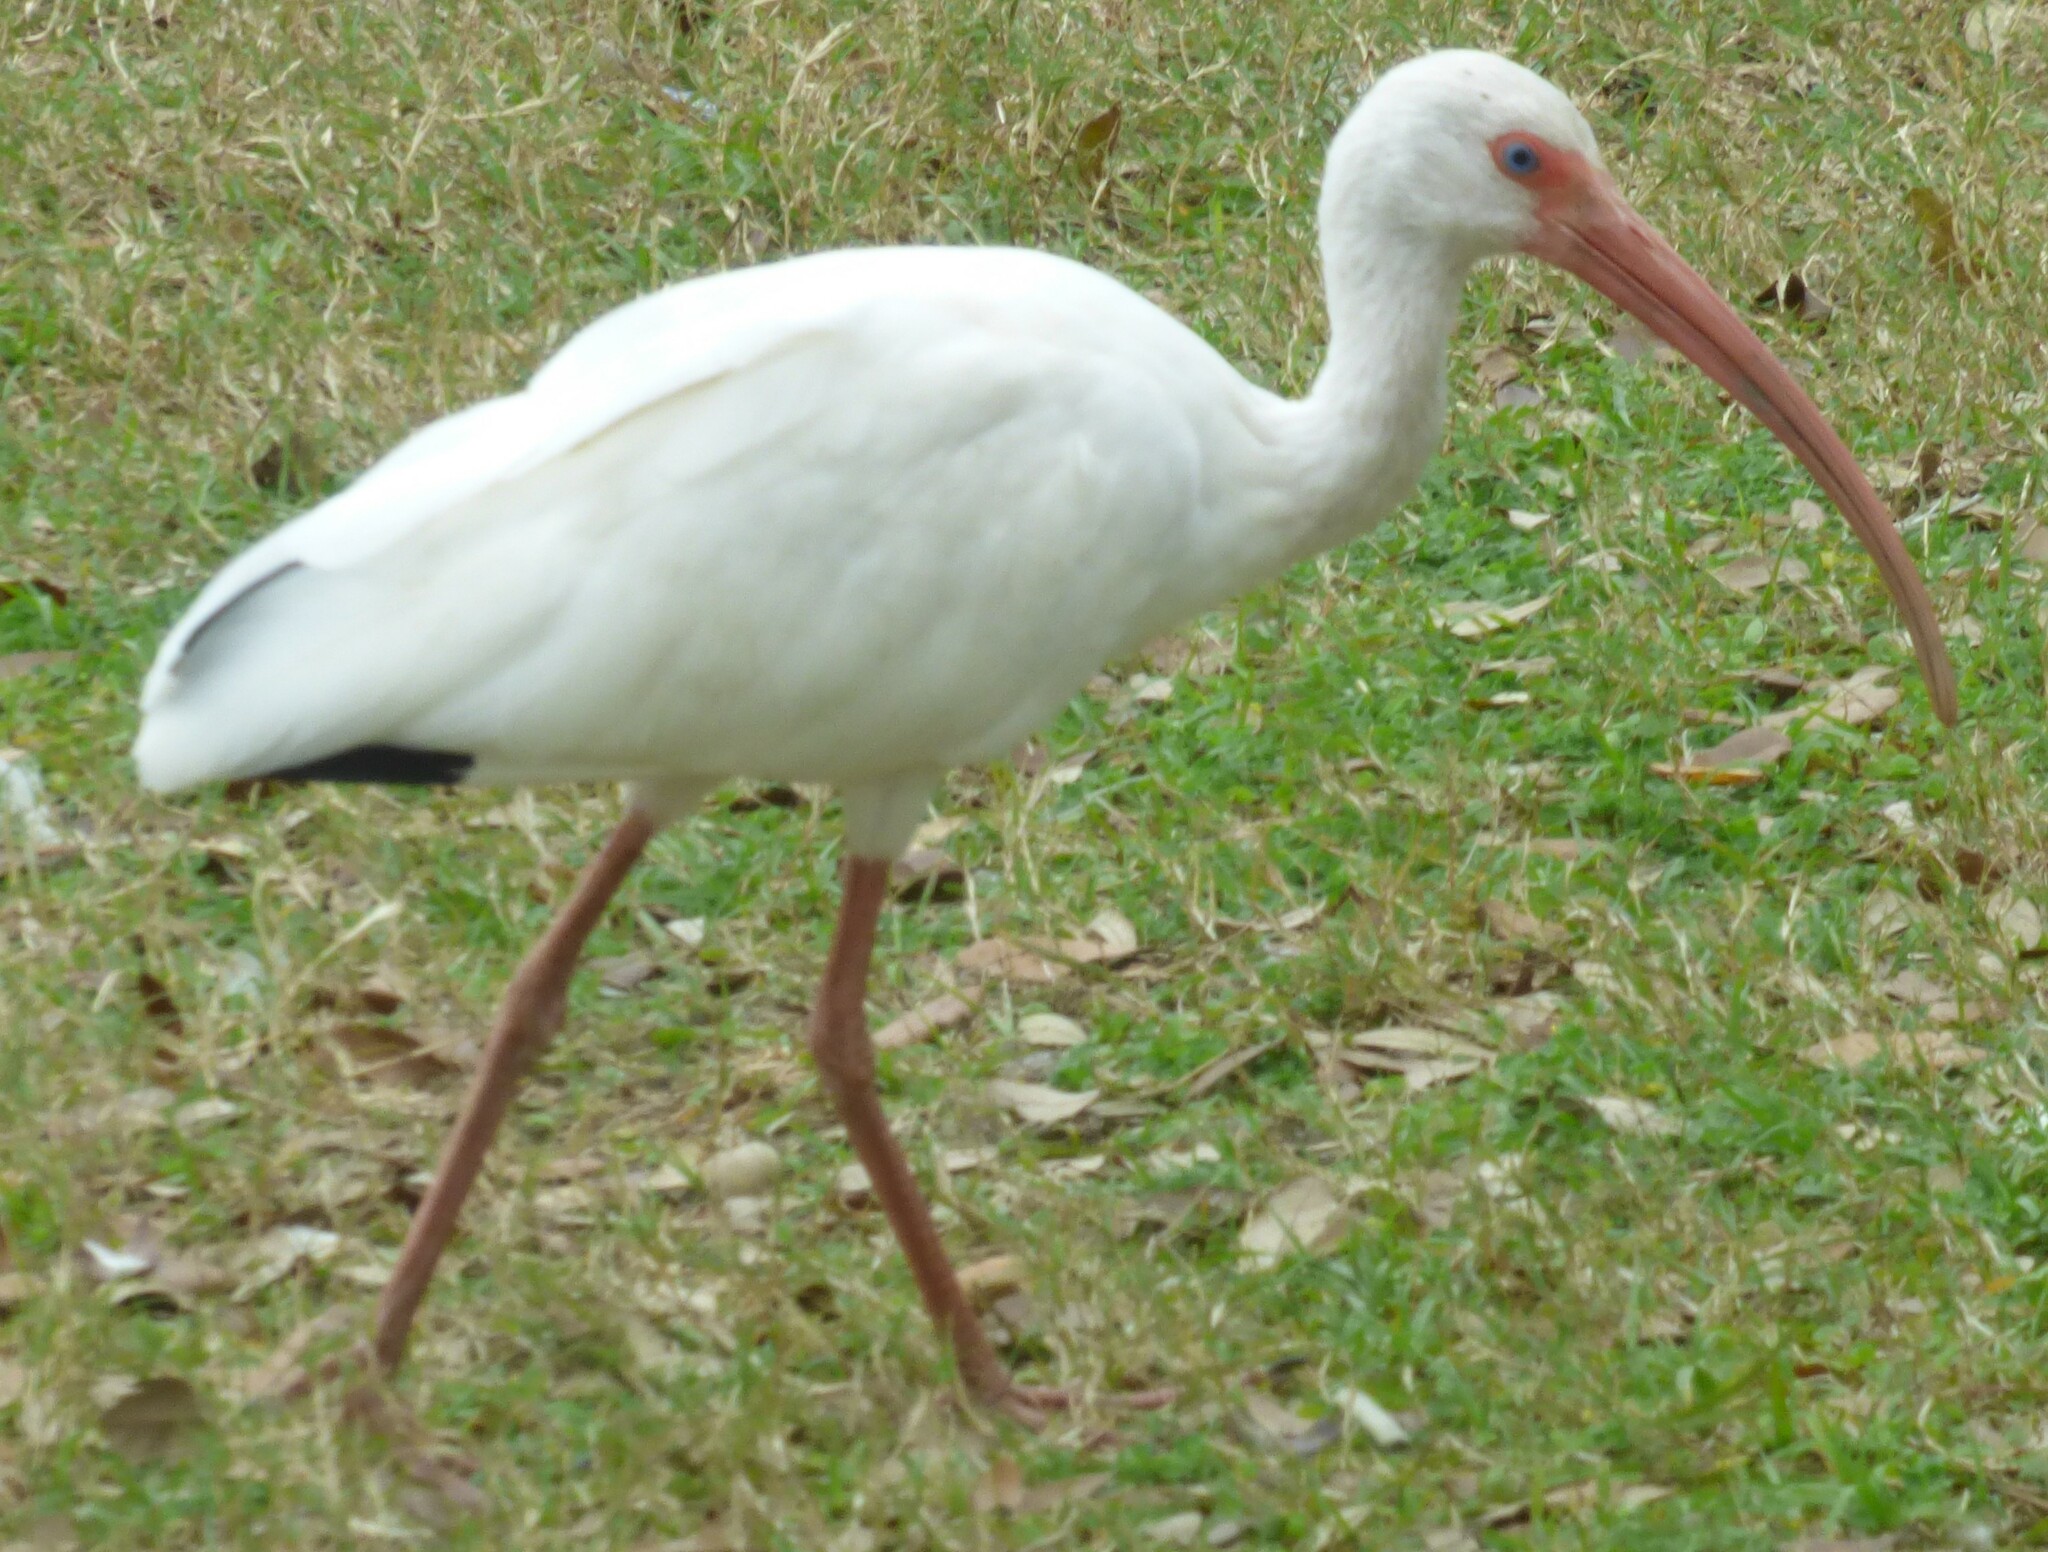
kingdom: Animalia
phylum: Chordata
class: Aves
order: Pelecaniformes
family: Threskiornithidae
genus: Eudocimus
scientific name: Eudocimus albus
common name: White ibis
